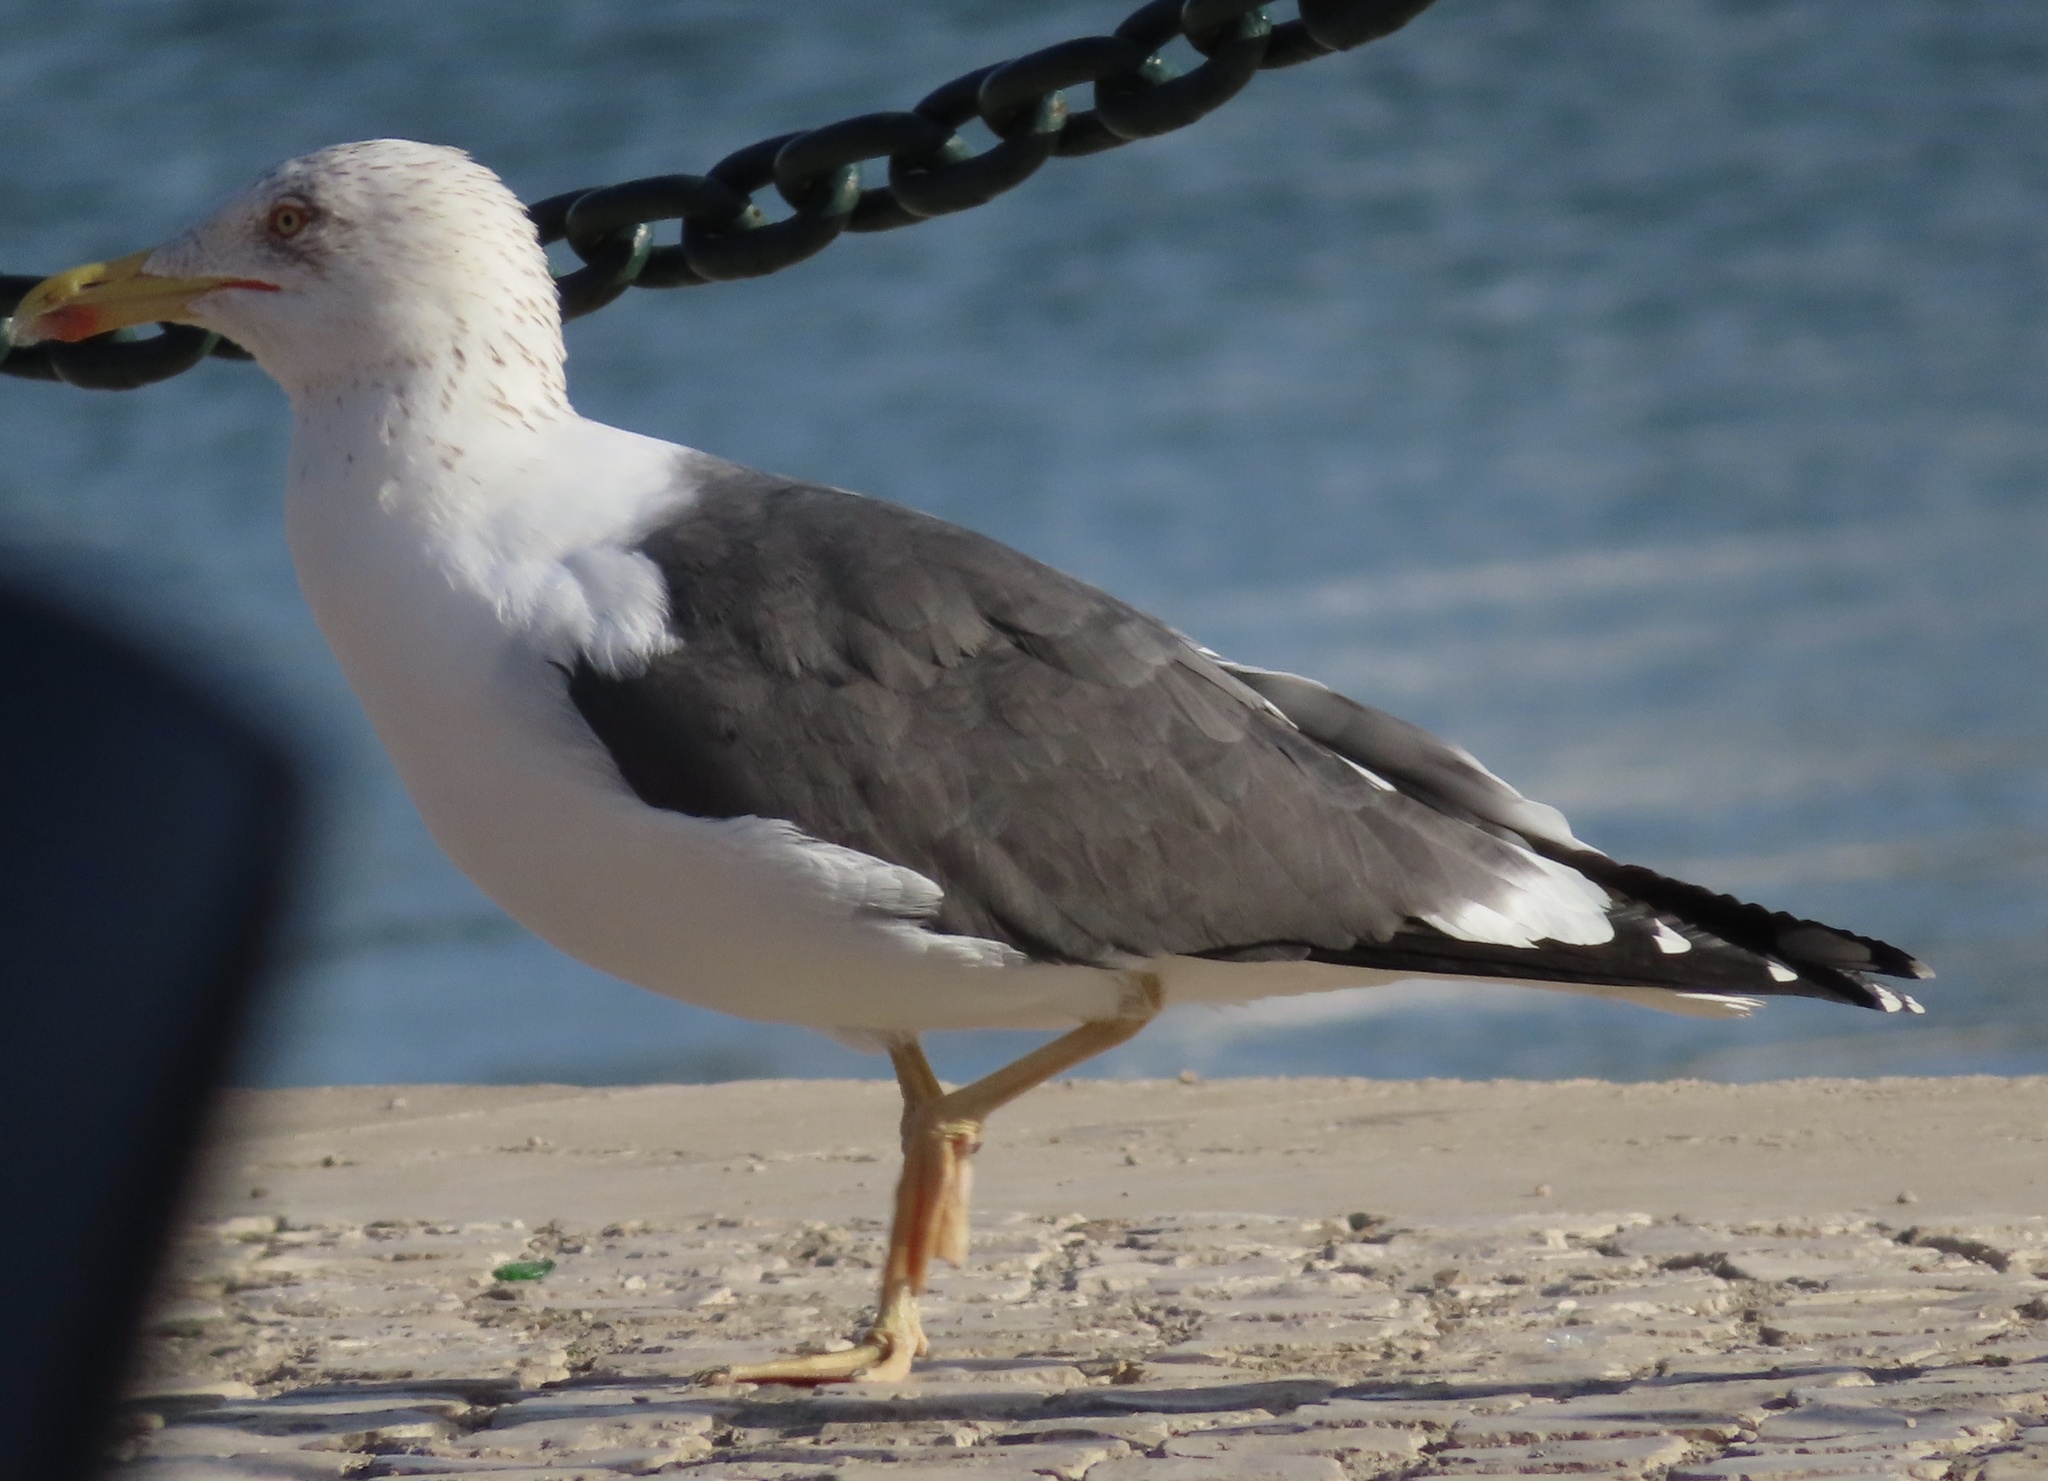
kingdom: Animalia
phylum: Chordata
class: Aves
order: Charadriiformes
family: Laridae
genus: Larus
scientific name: Larus fuscus
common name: Lesser black-backed gull
